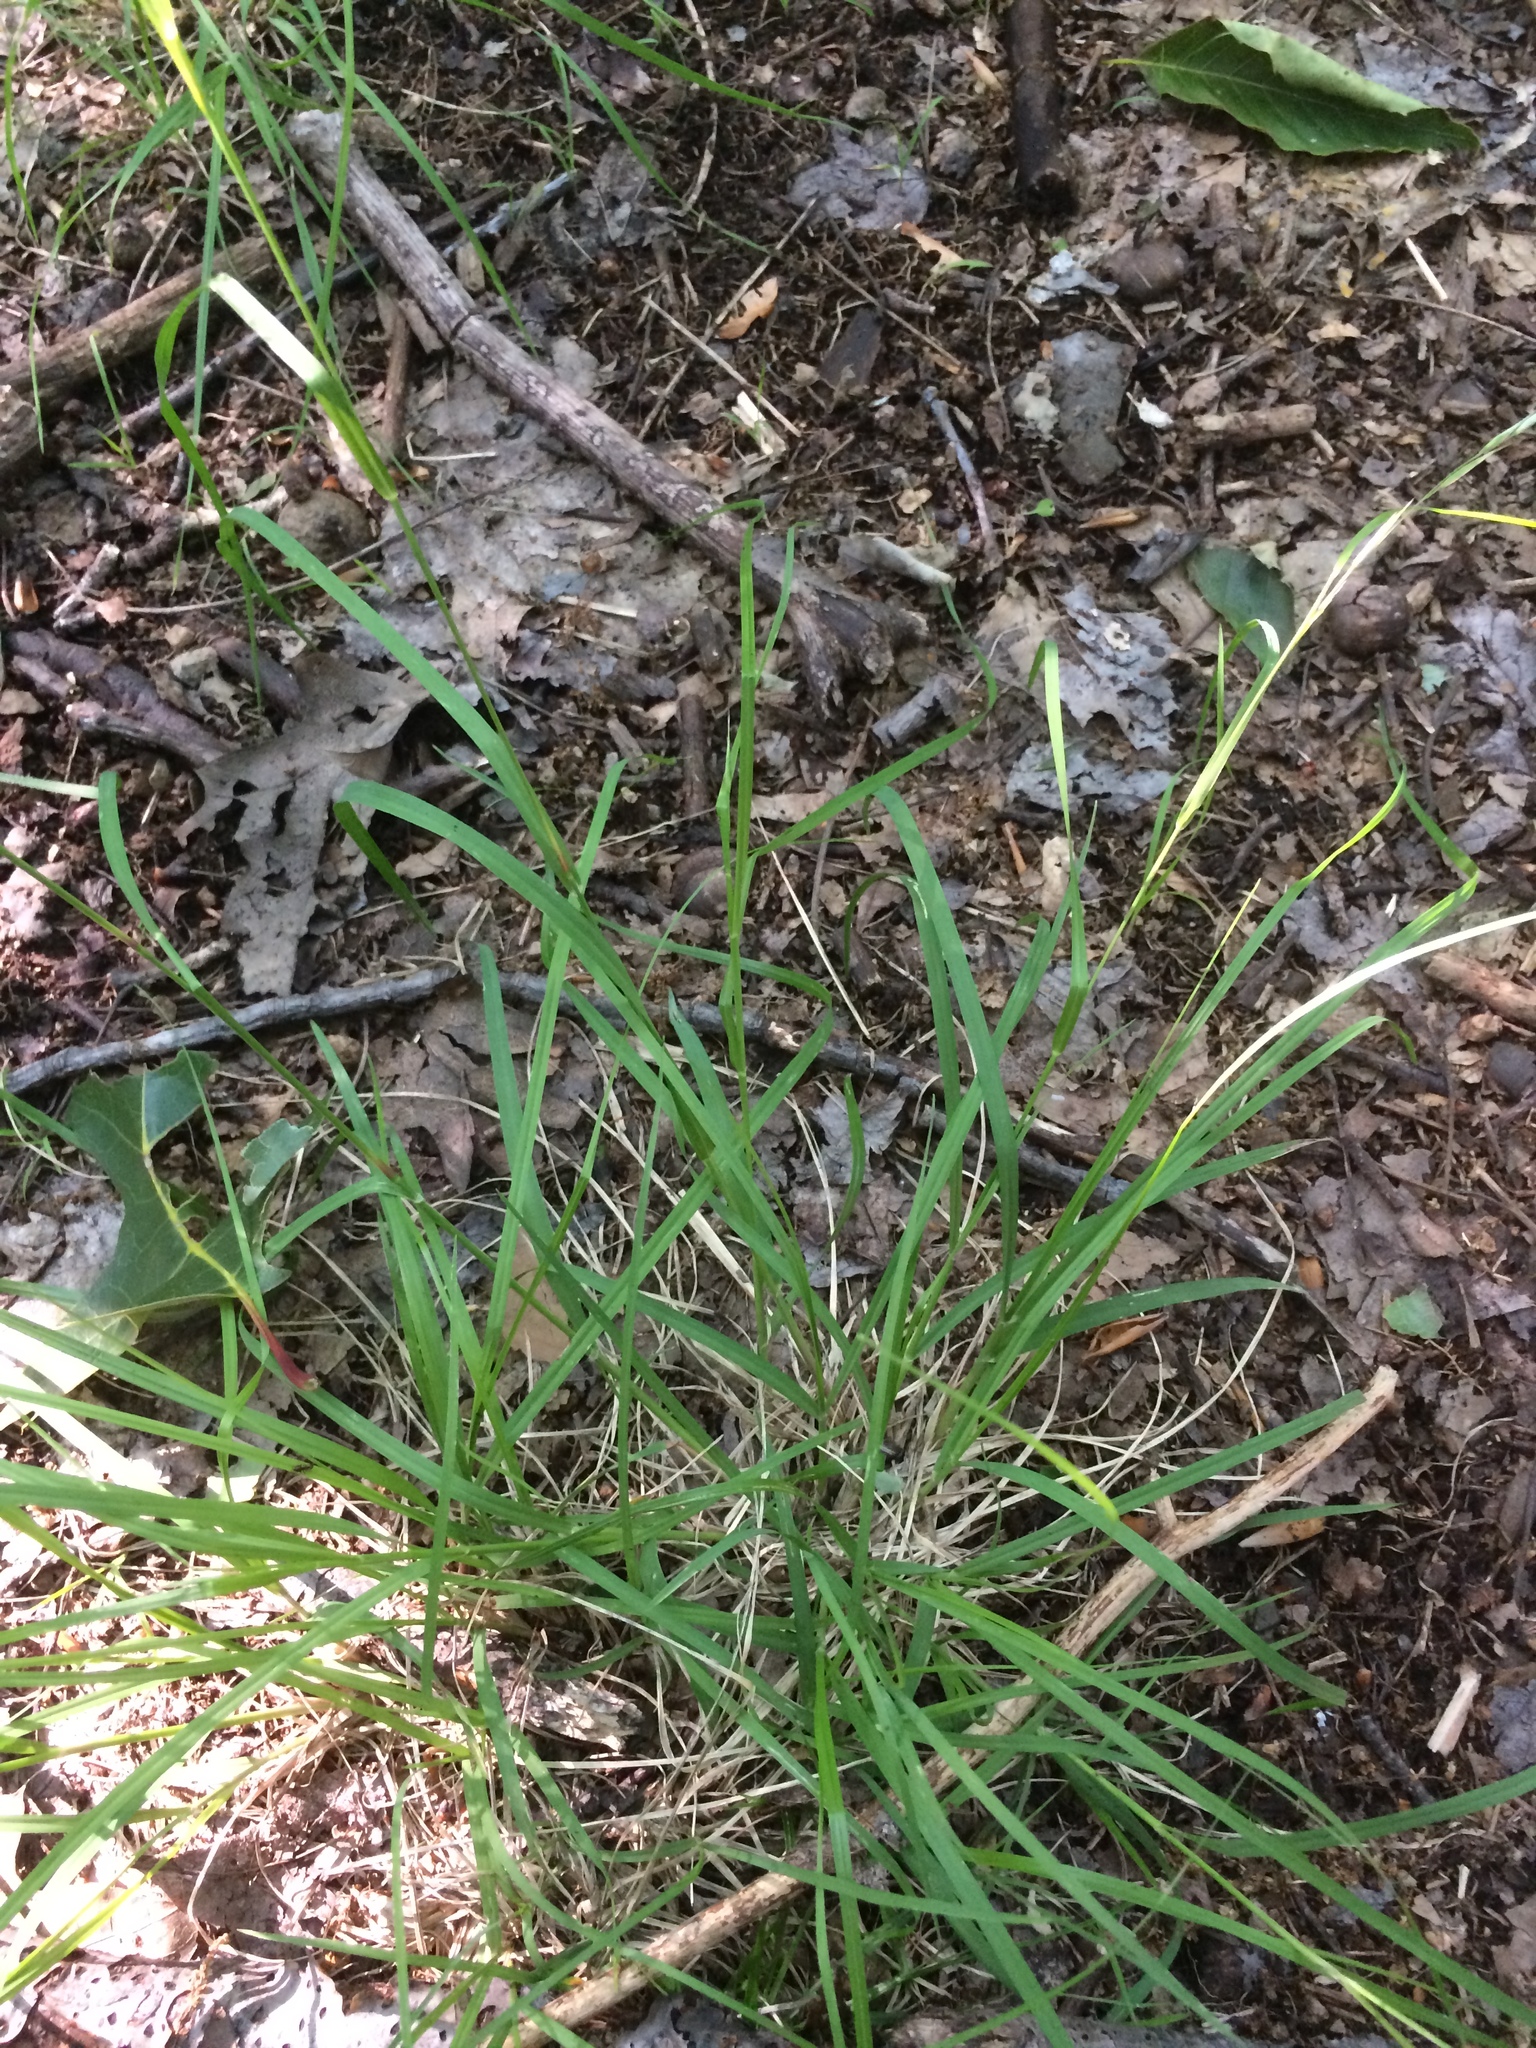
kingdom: Plantae
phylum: Tracheophyta
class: Liliopsida
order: Poales
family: Poaceae
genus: Danthonia
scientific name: Danthonia compressa
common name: Flat-stem oat grass
